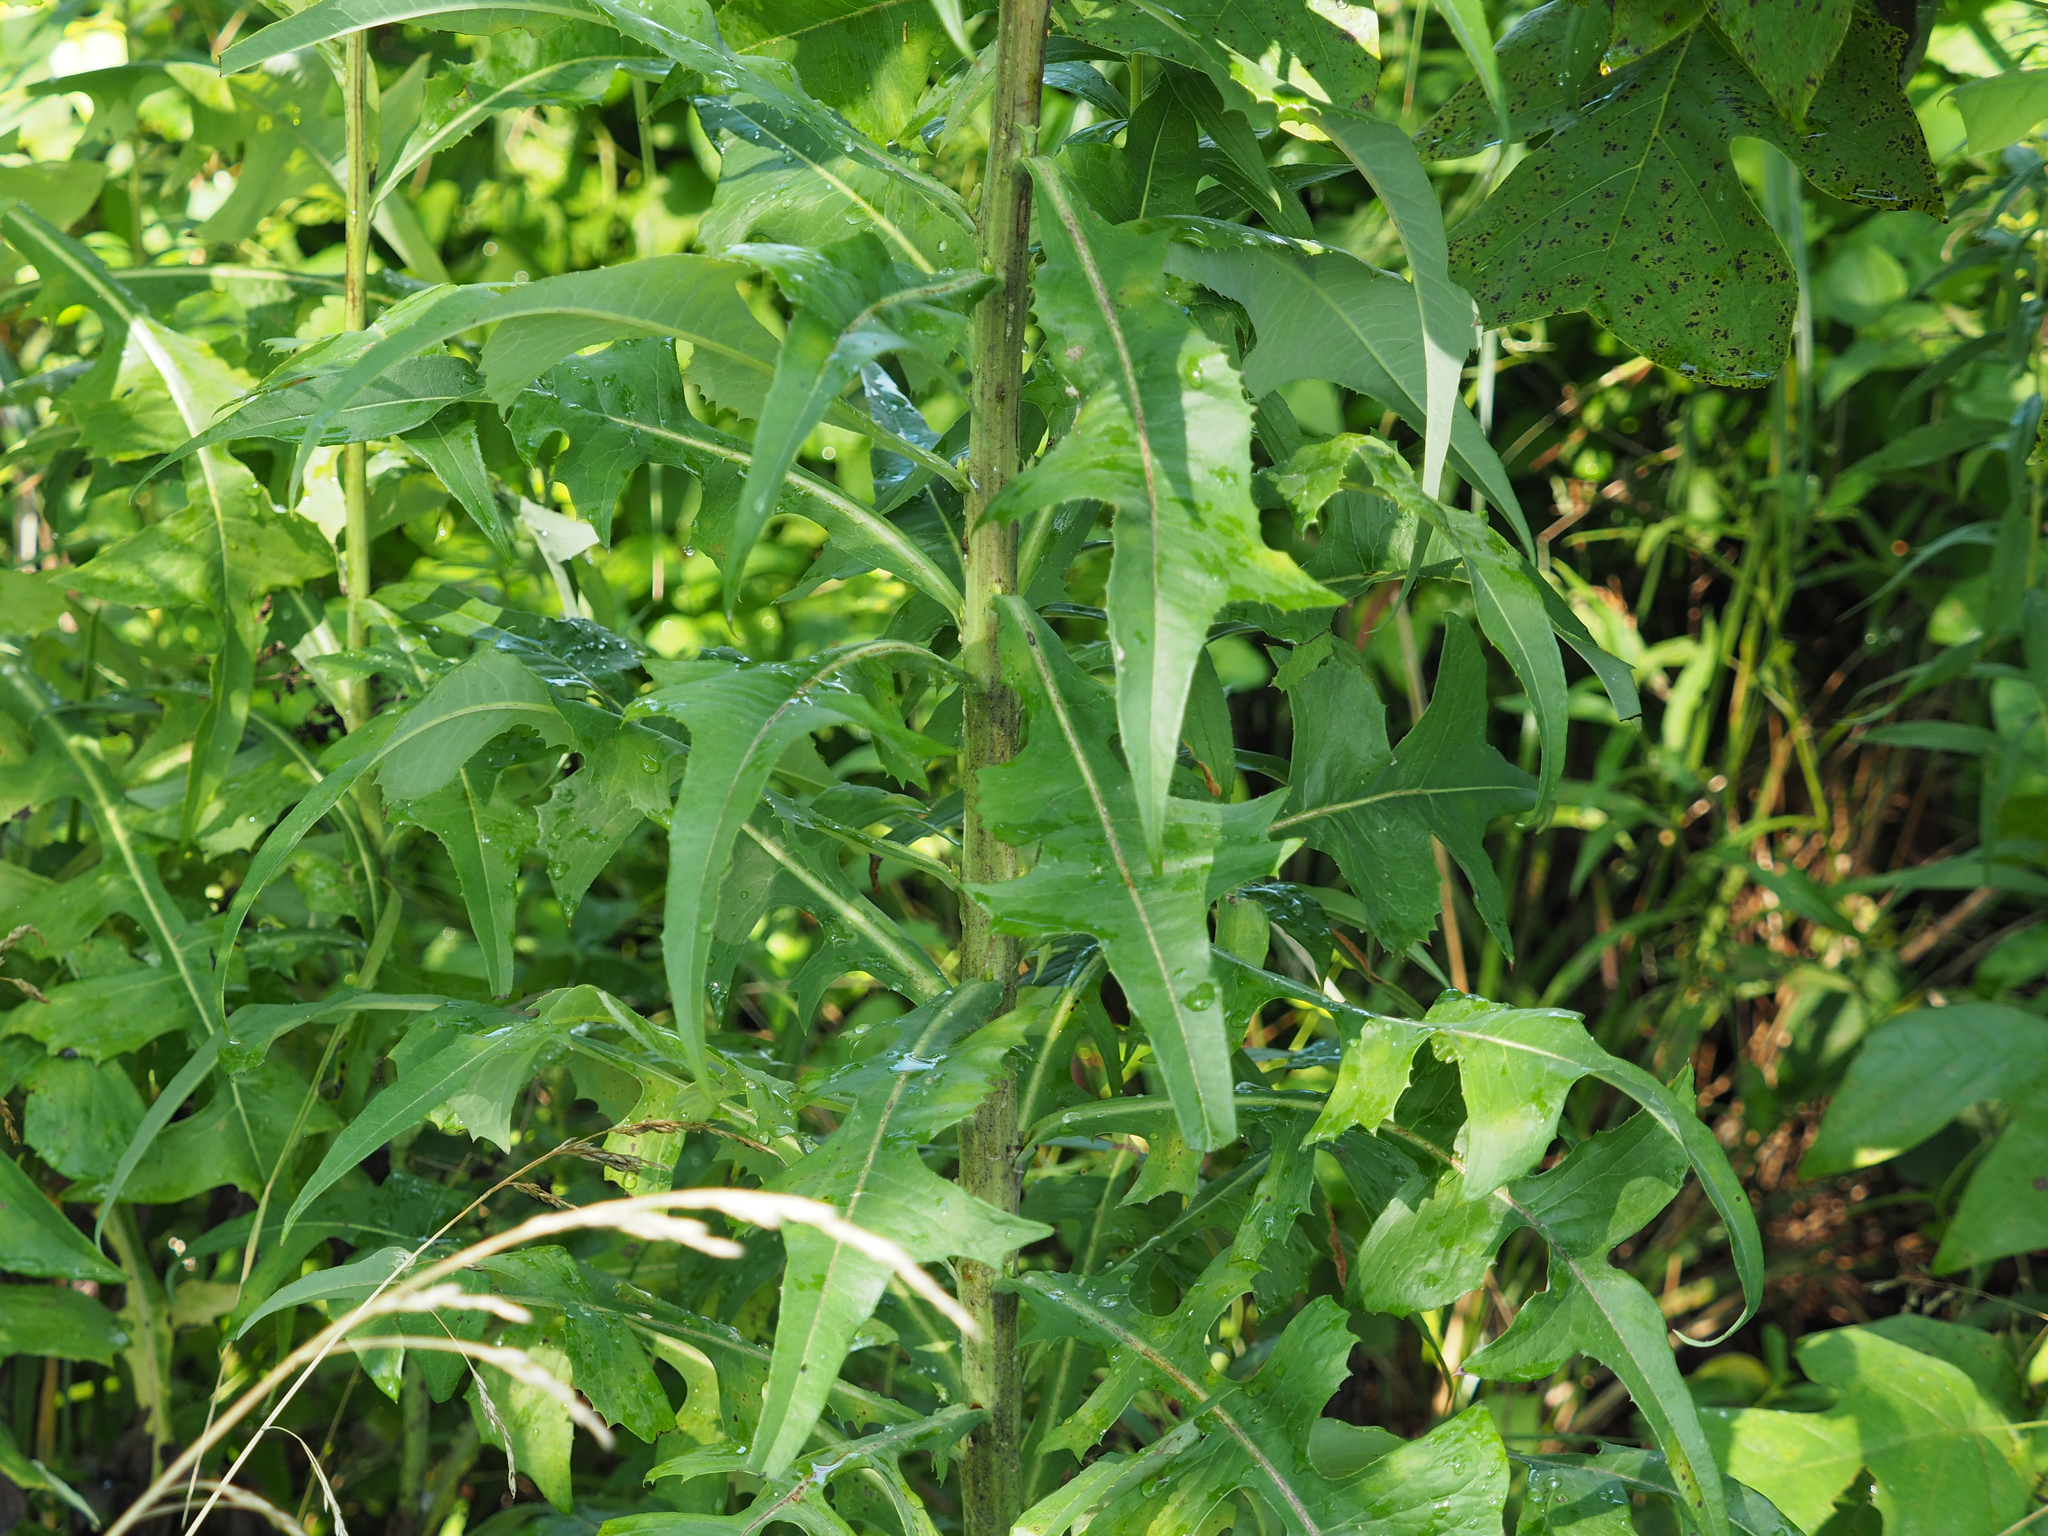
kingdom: Plantae
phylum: Tracheophyta
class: Magnoliopsida
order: Asterales
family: Asteraceae
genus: Lactuca
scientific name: Lactuca canadensis
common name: Canada lettuce
